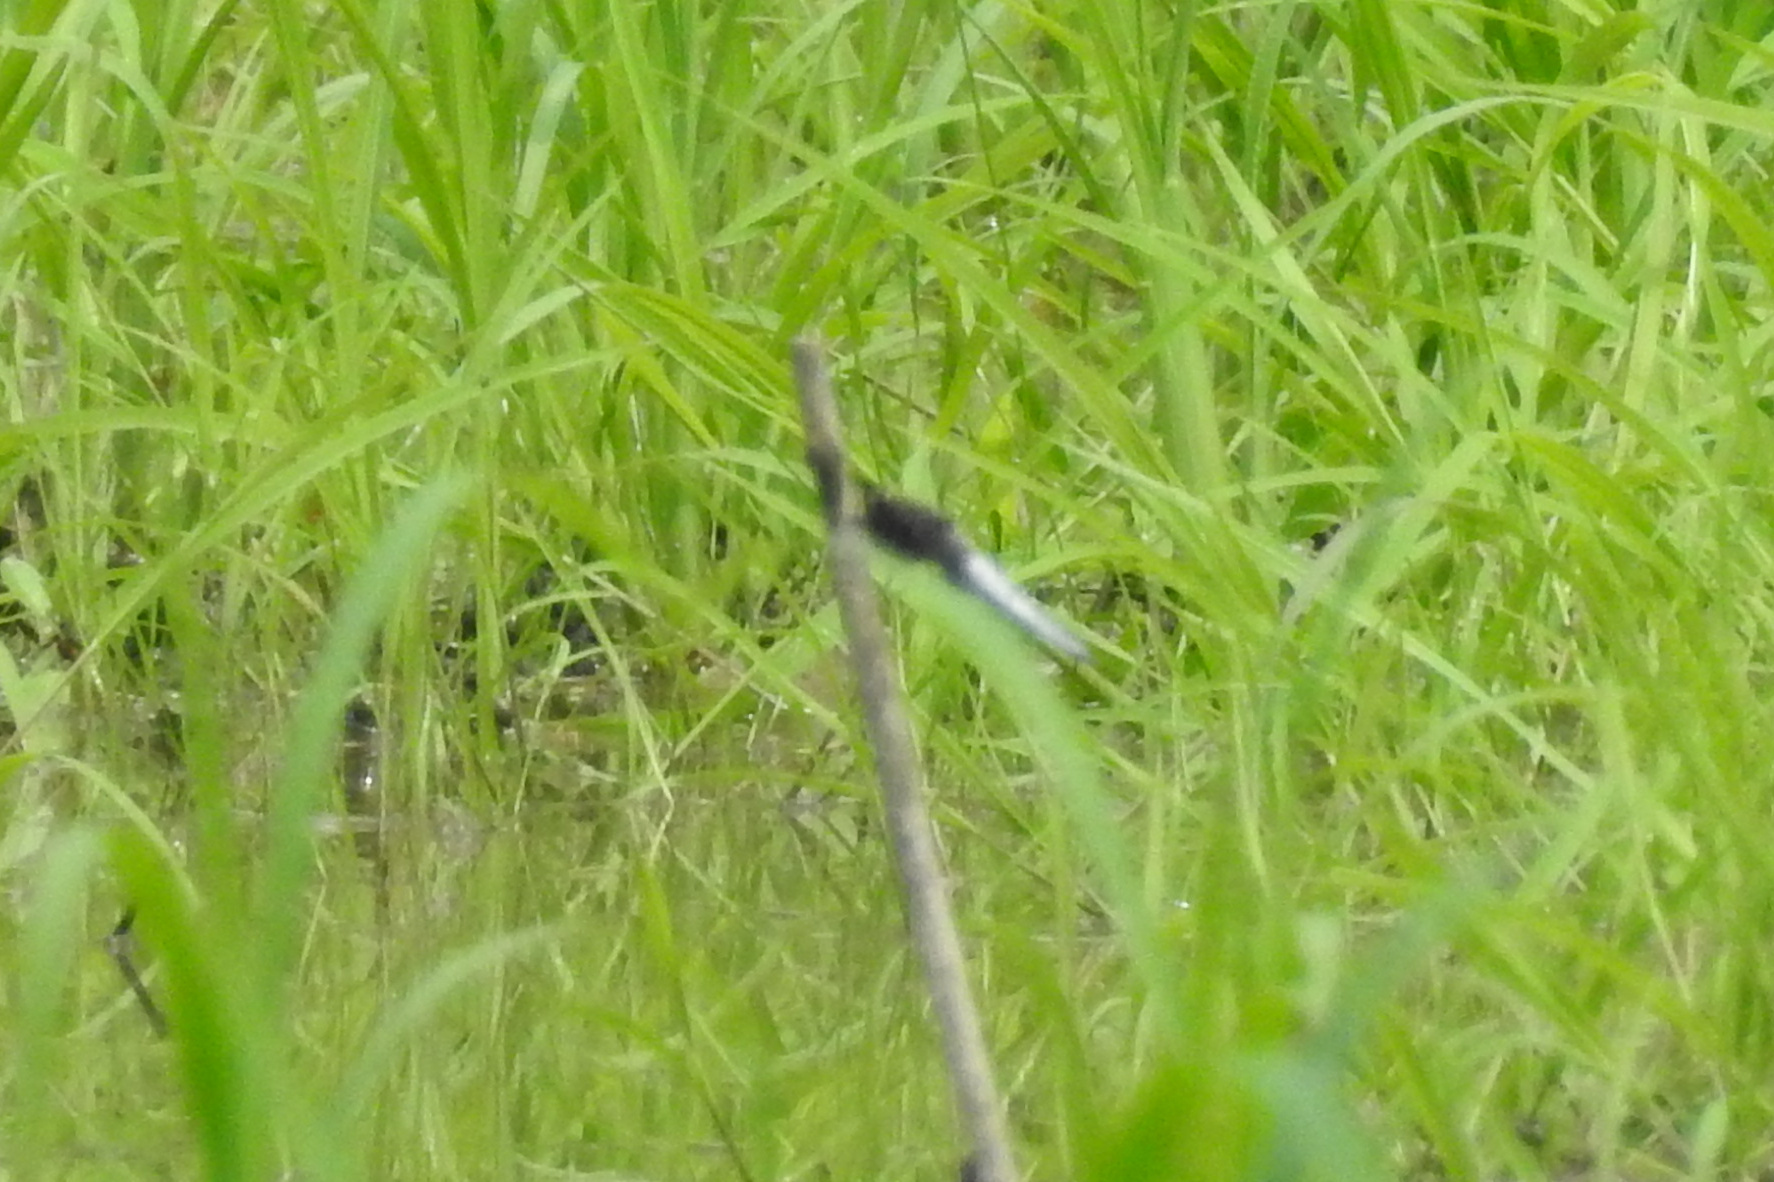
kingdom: Animalia
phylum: Arthropoda
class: Insecta
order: Odonata
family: Libellulidae
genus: Plathemis
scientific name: Plathemis lydia
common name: Common whitetail
